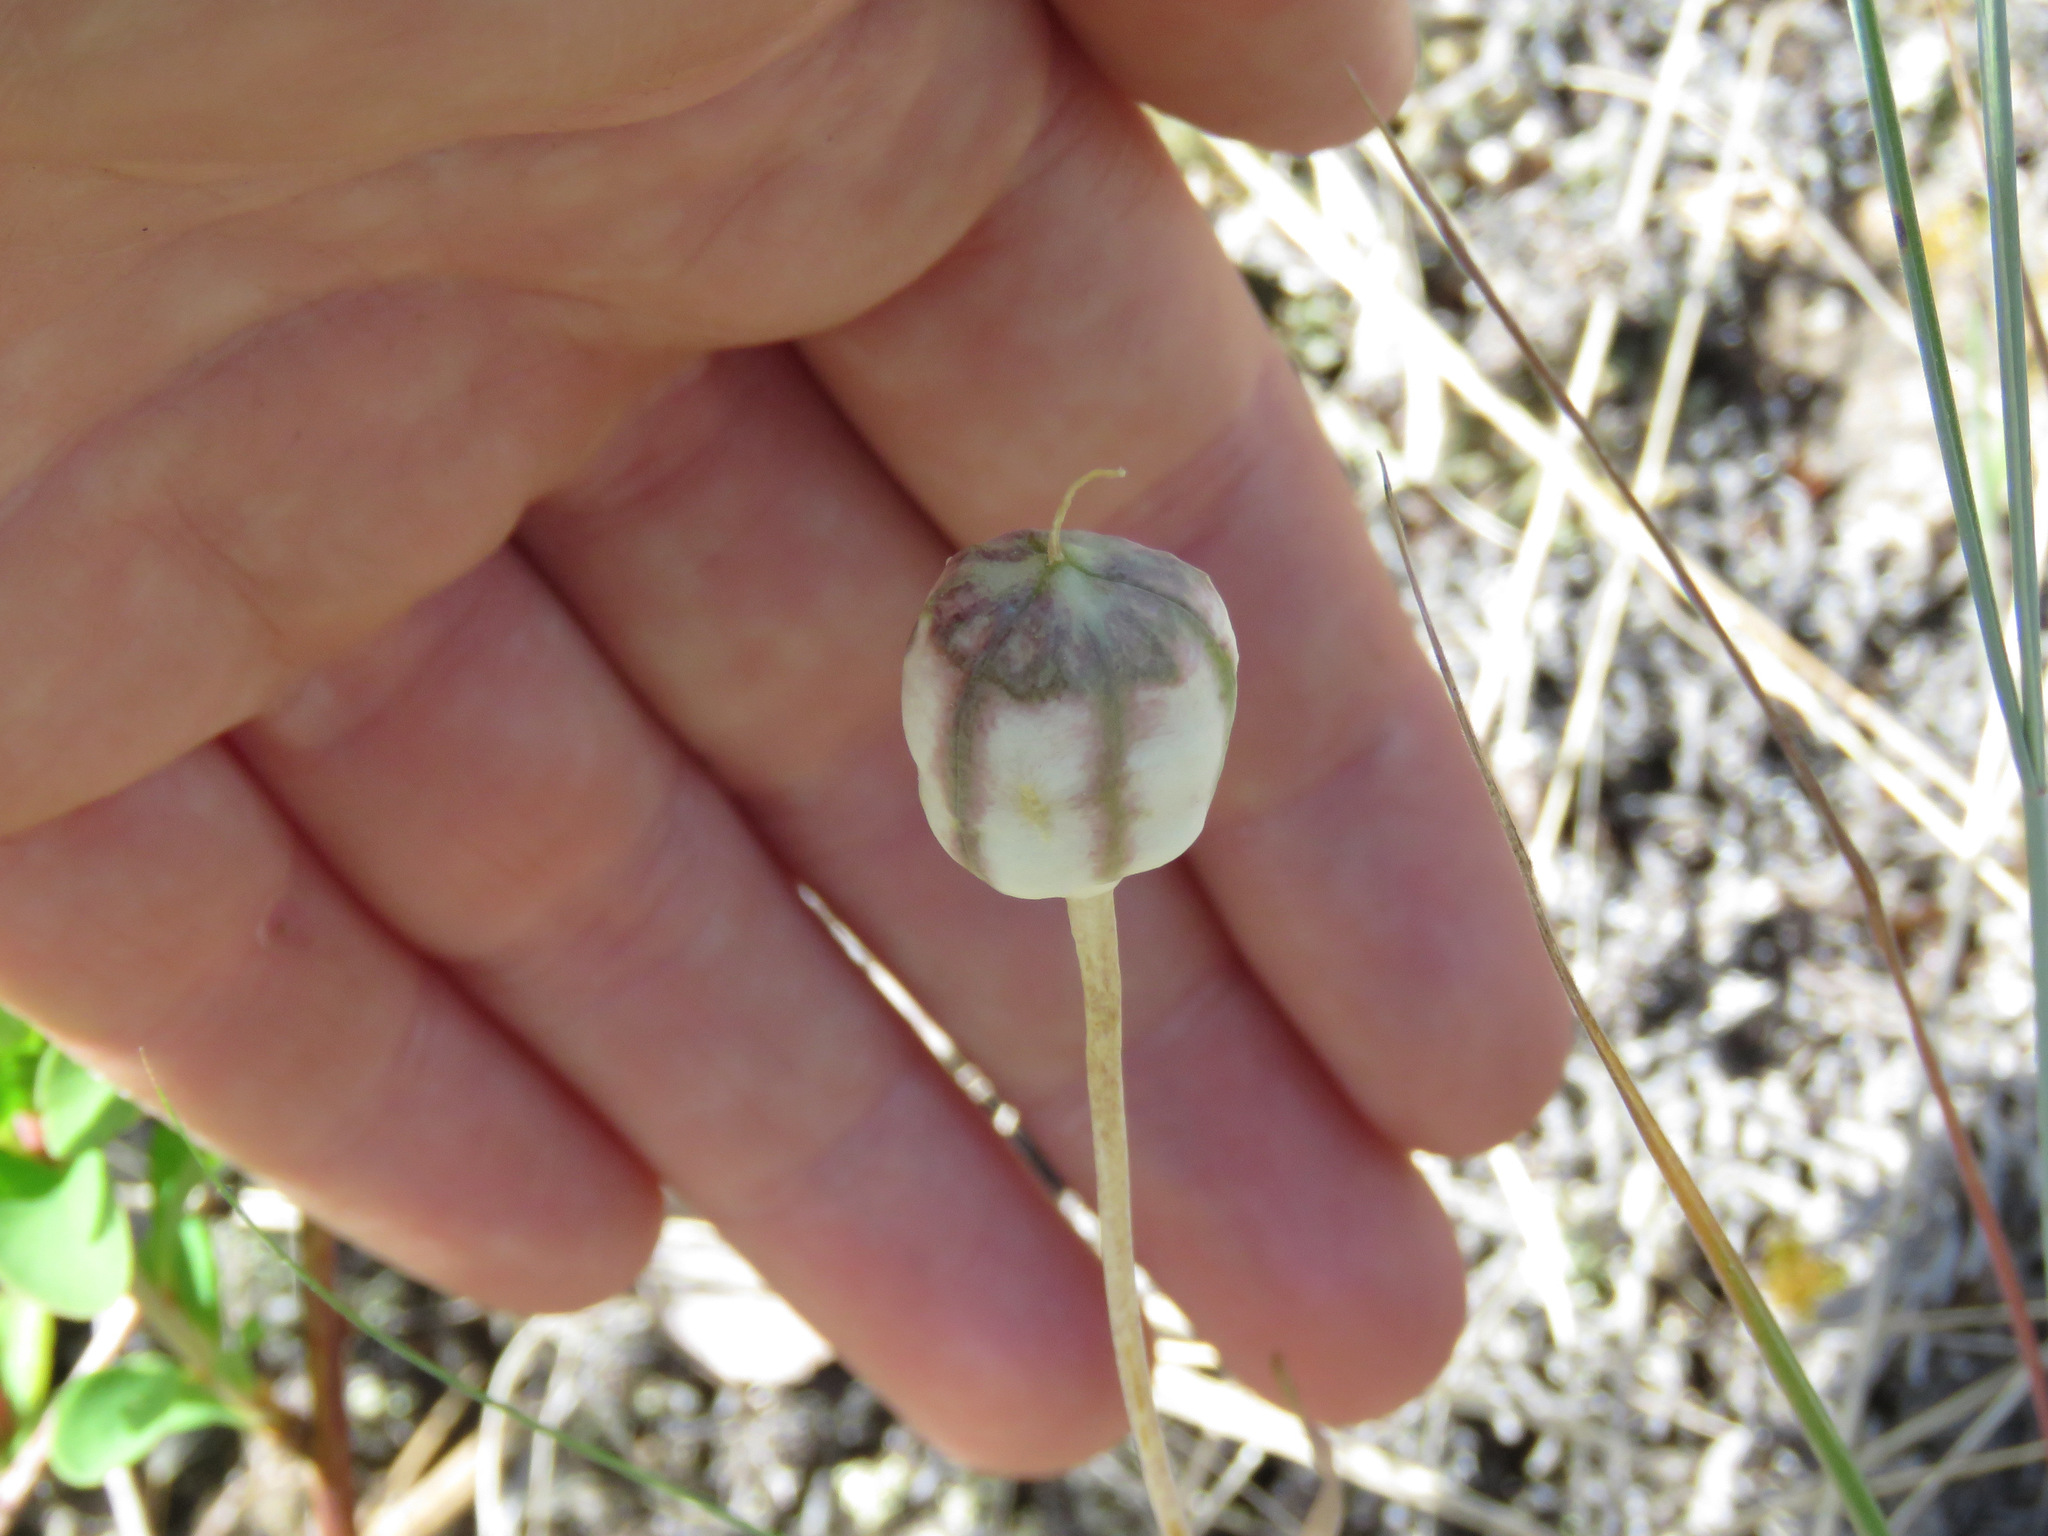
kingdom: Plantae
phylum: Tracheophyta
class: Liliopsida
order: Liliales
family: Liliaceae
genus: Fritillaria
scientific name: Fritillaria pudica
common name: Yellow fritillary
